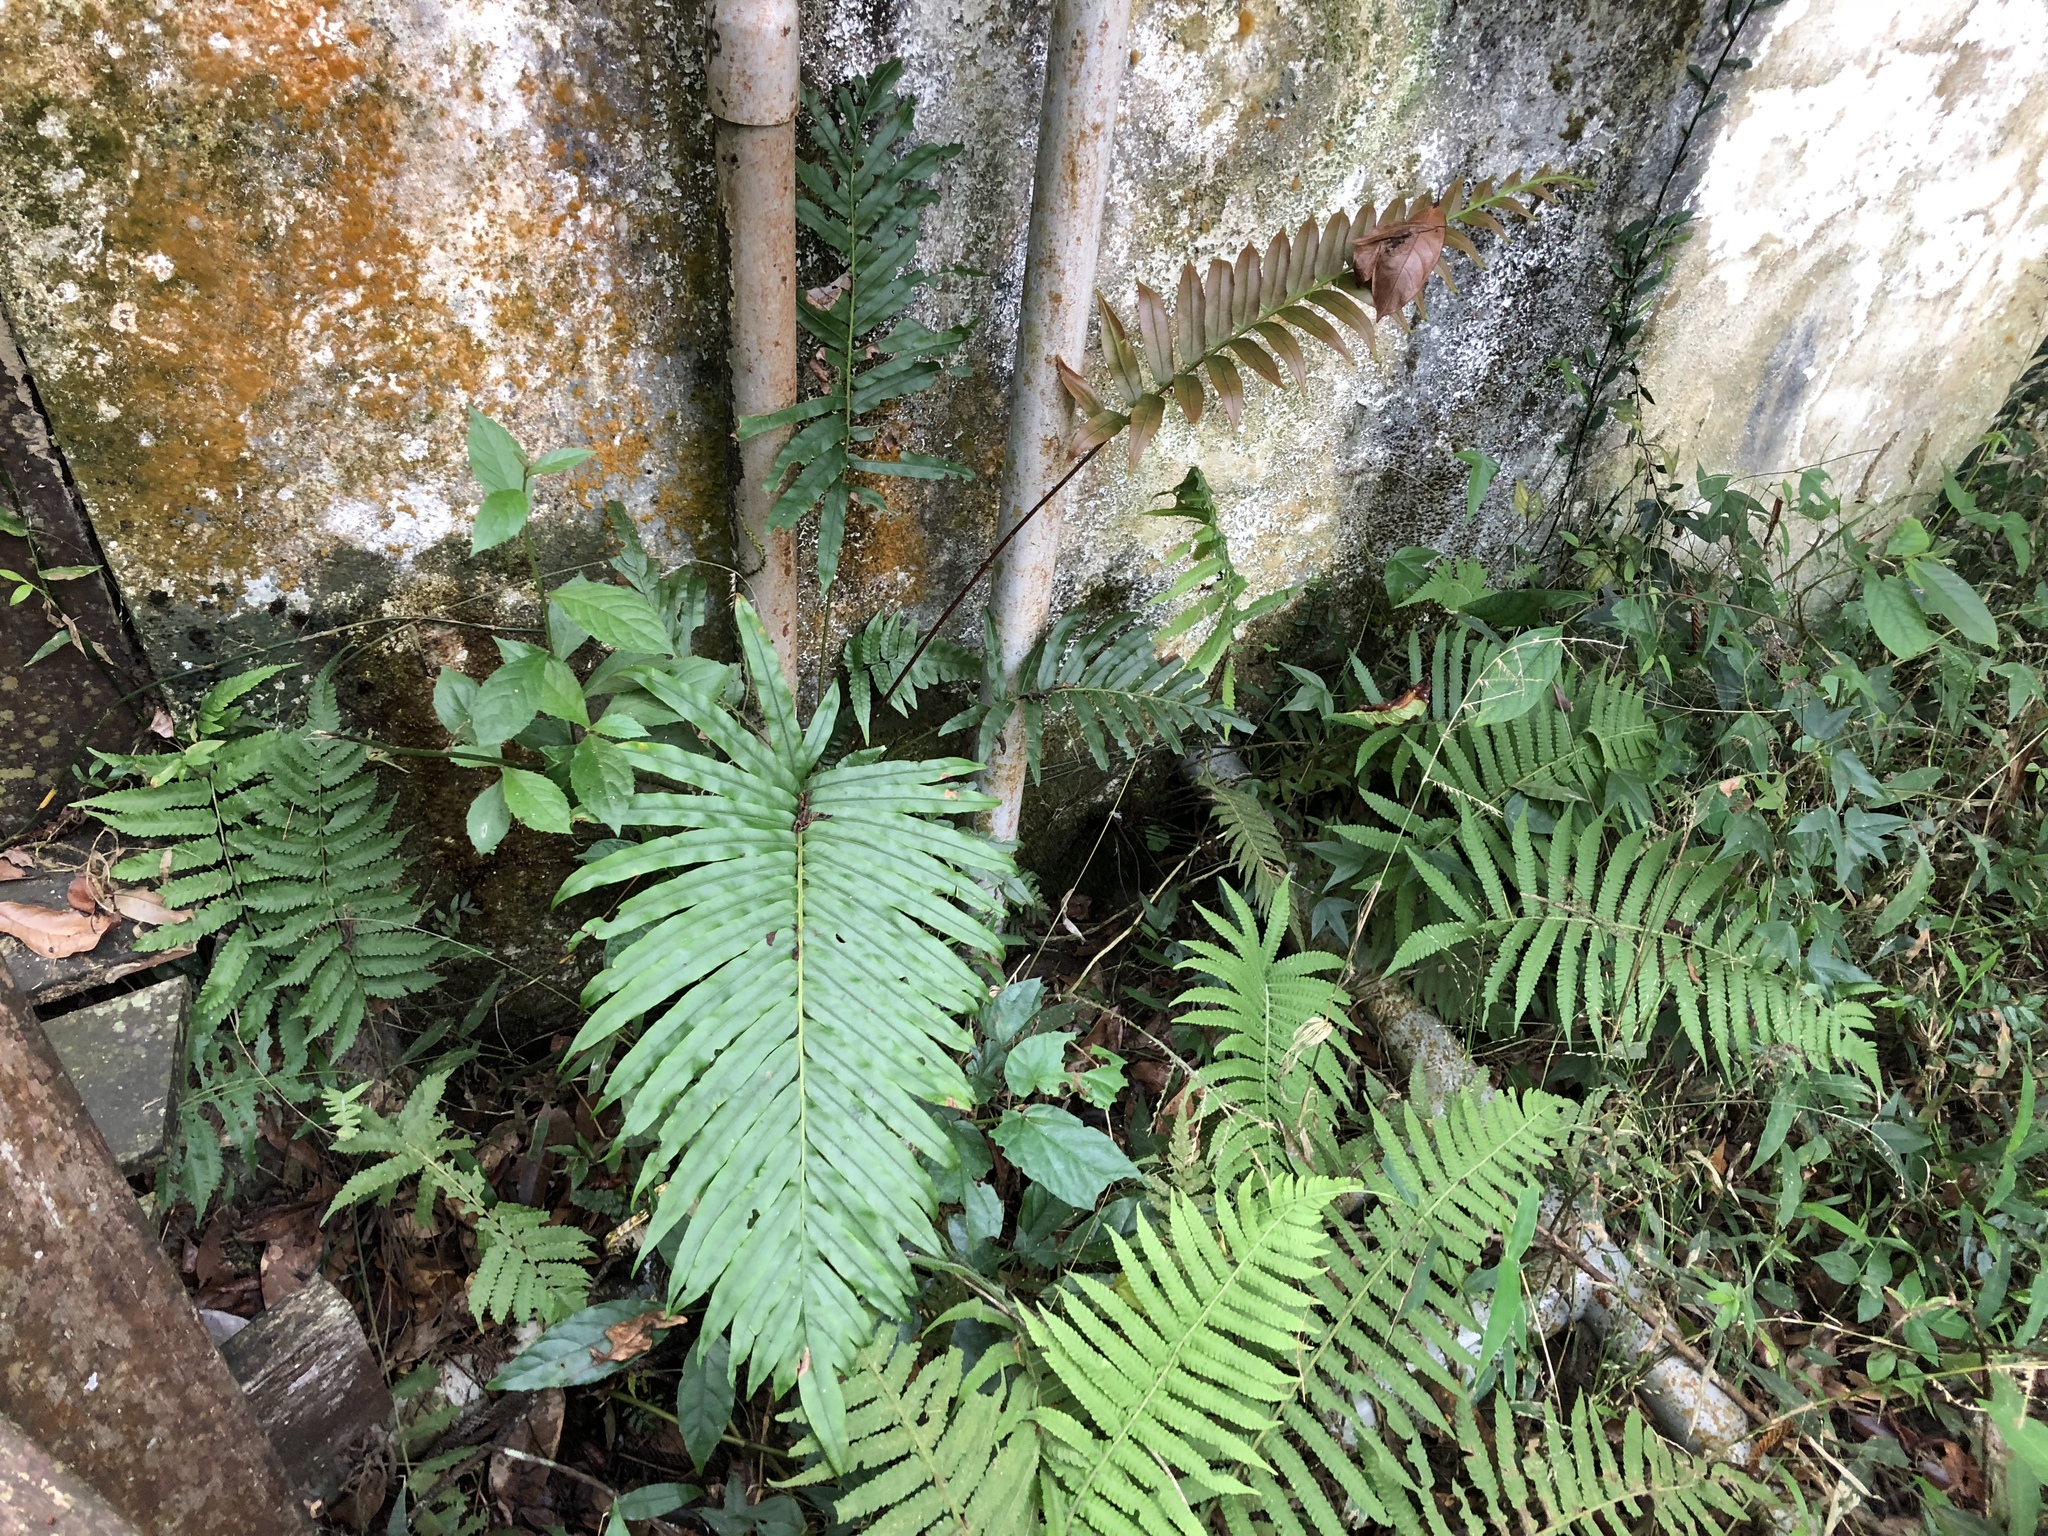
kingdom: Plantae
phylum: Tracheophyta
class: Polypodiopsida
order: Polypodiales
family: Blechnaceae
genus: Blechnopsis
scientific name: Blechnopsis orientalis
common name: Oriental blechnum
